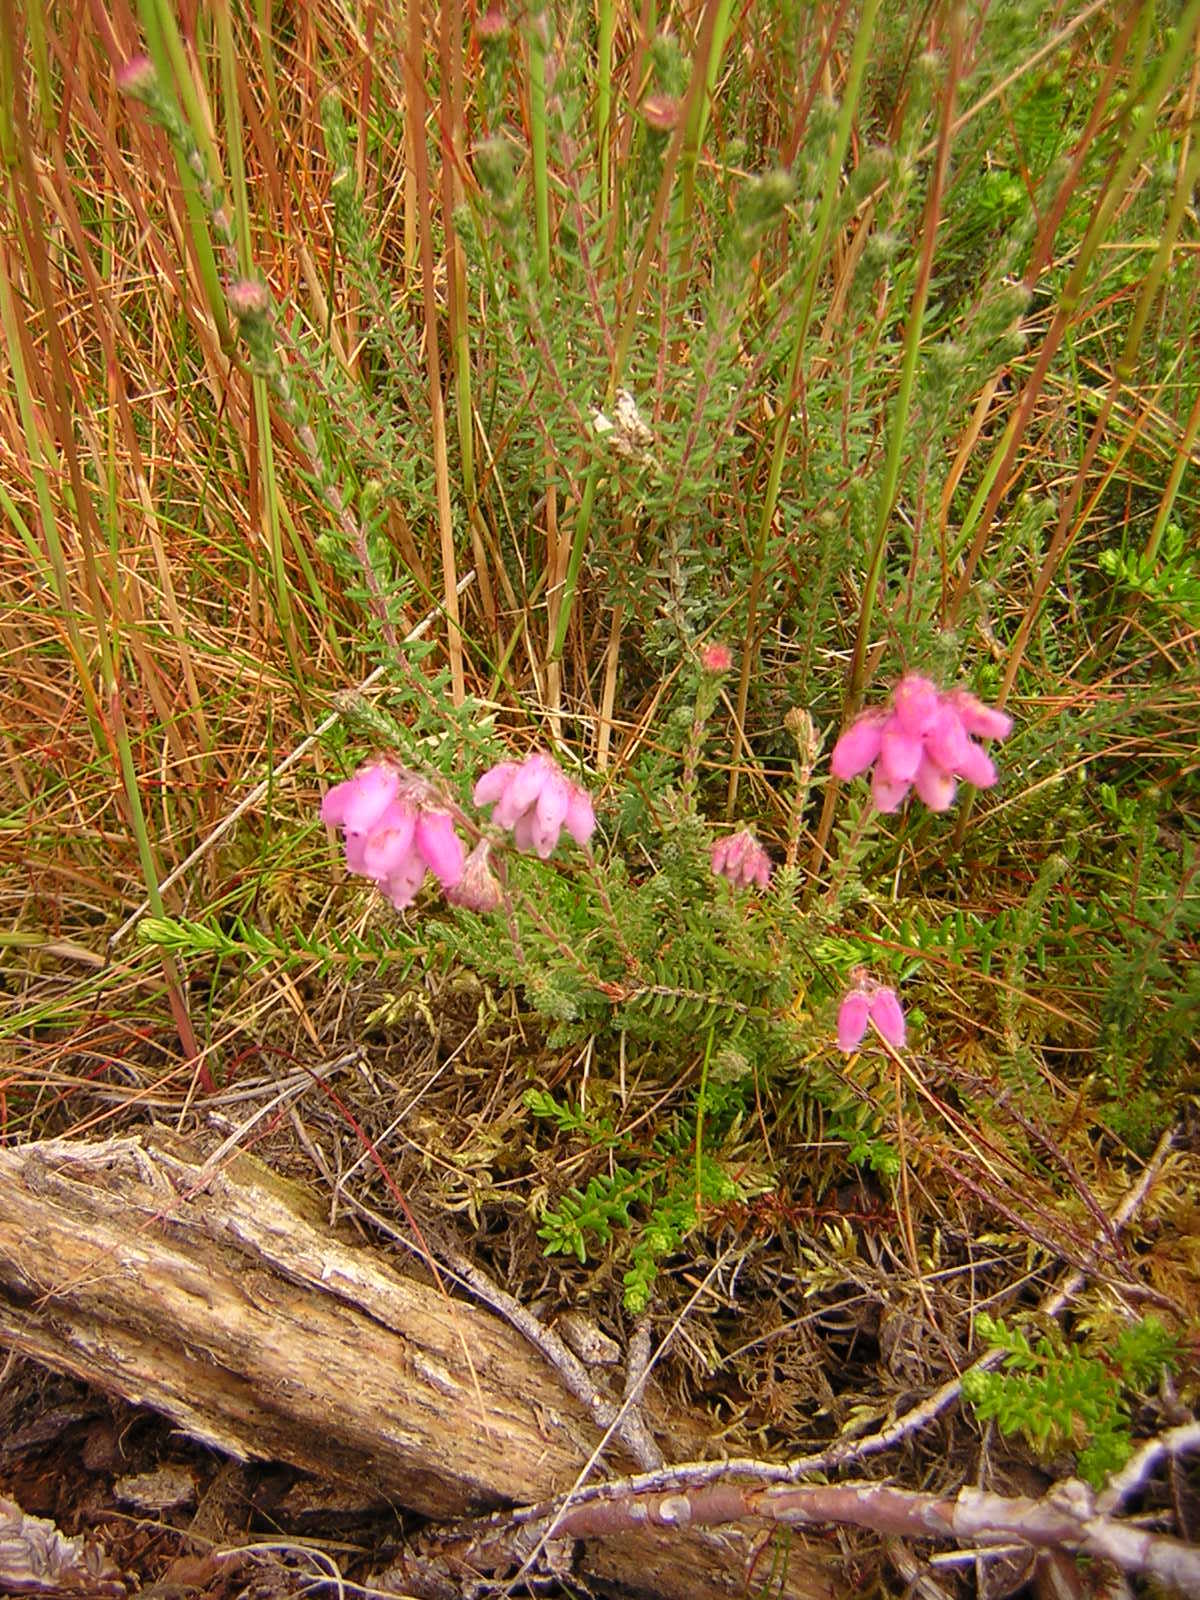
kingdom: Plantae
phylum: Tracheophyta
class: Magnoliopsida
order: Ericales
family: Ericaceae
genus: Erica
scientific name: Erica tetralix
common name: Cross-leaved heath
